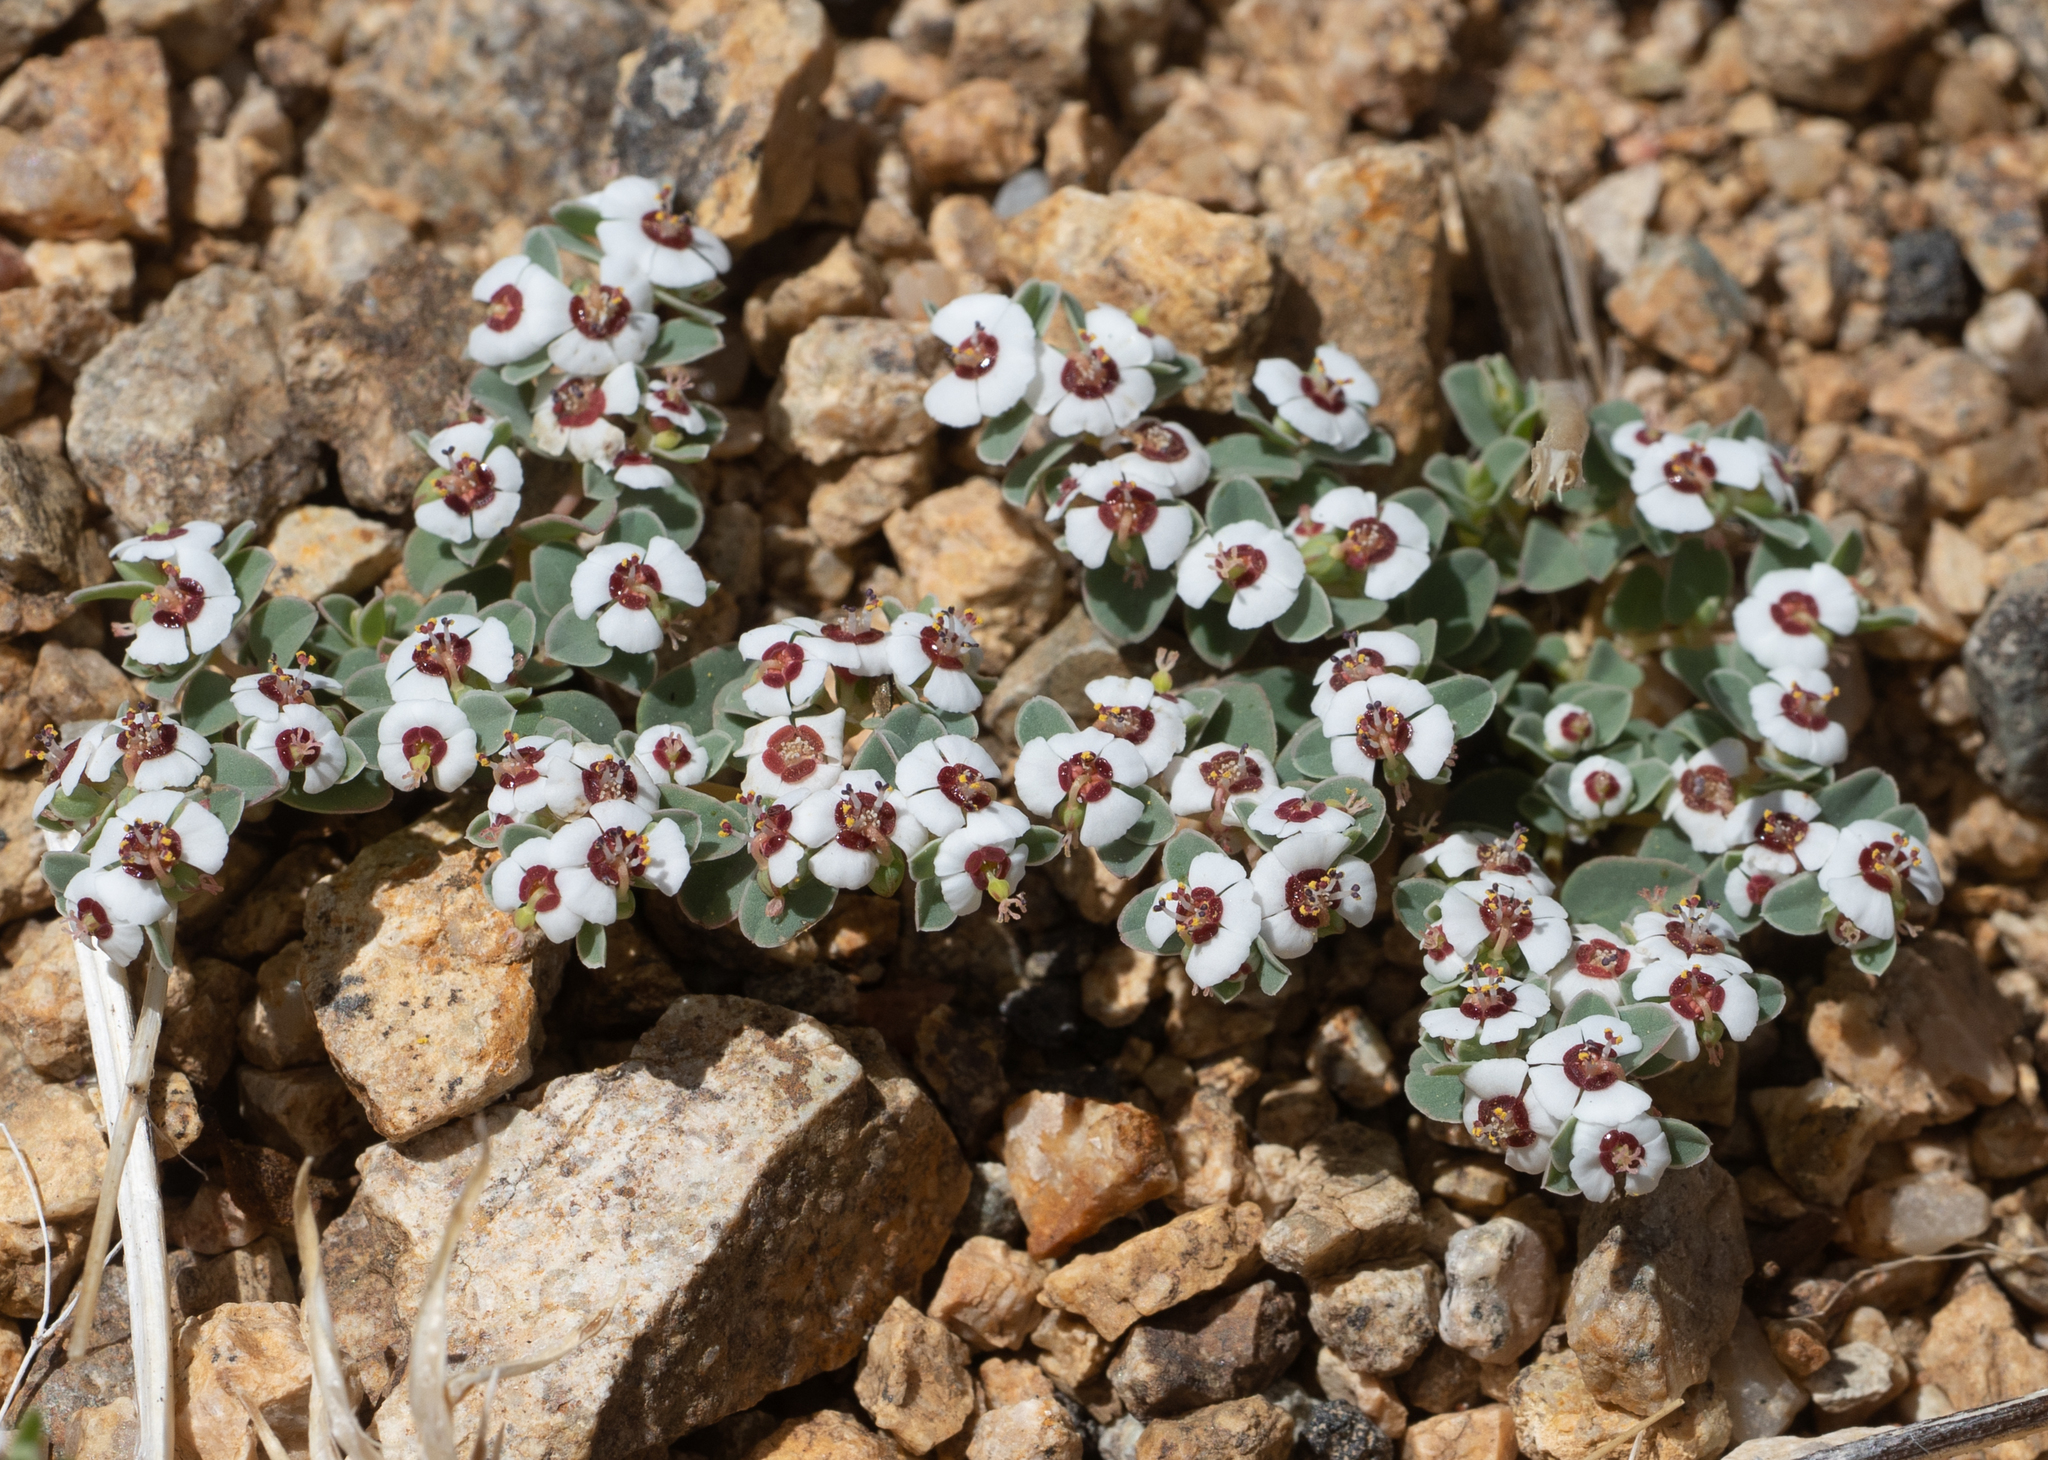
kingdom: Plantae
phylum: Tracheophyta
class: Magnoliopsida
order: Malpighiales
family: Euphorbiaceae
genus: Euphorbia
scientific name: Euphorbia albomarginata
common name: Whitemargin sandmat
